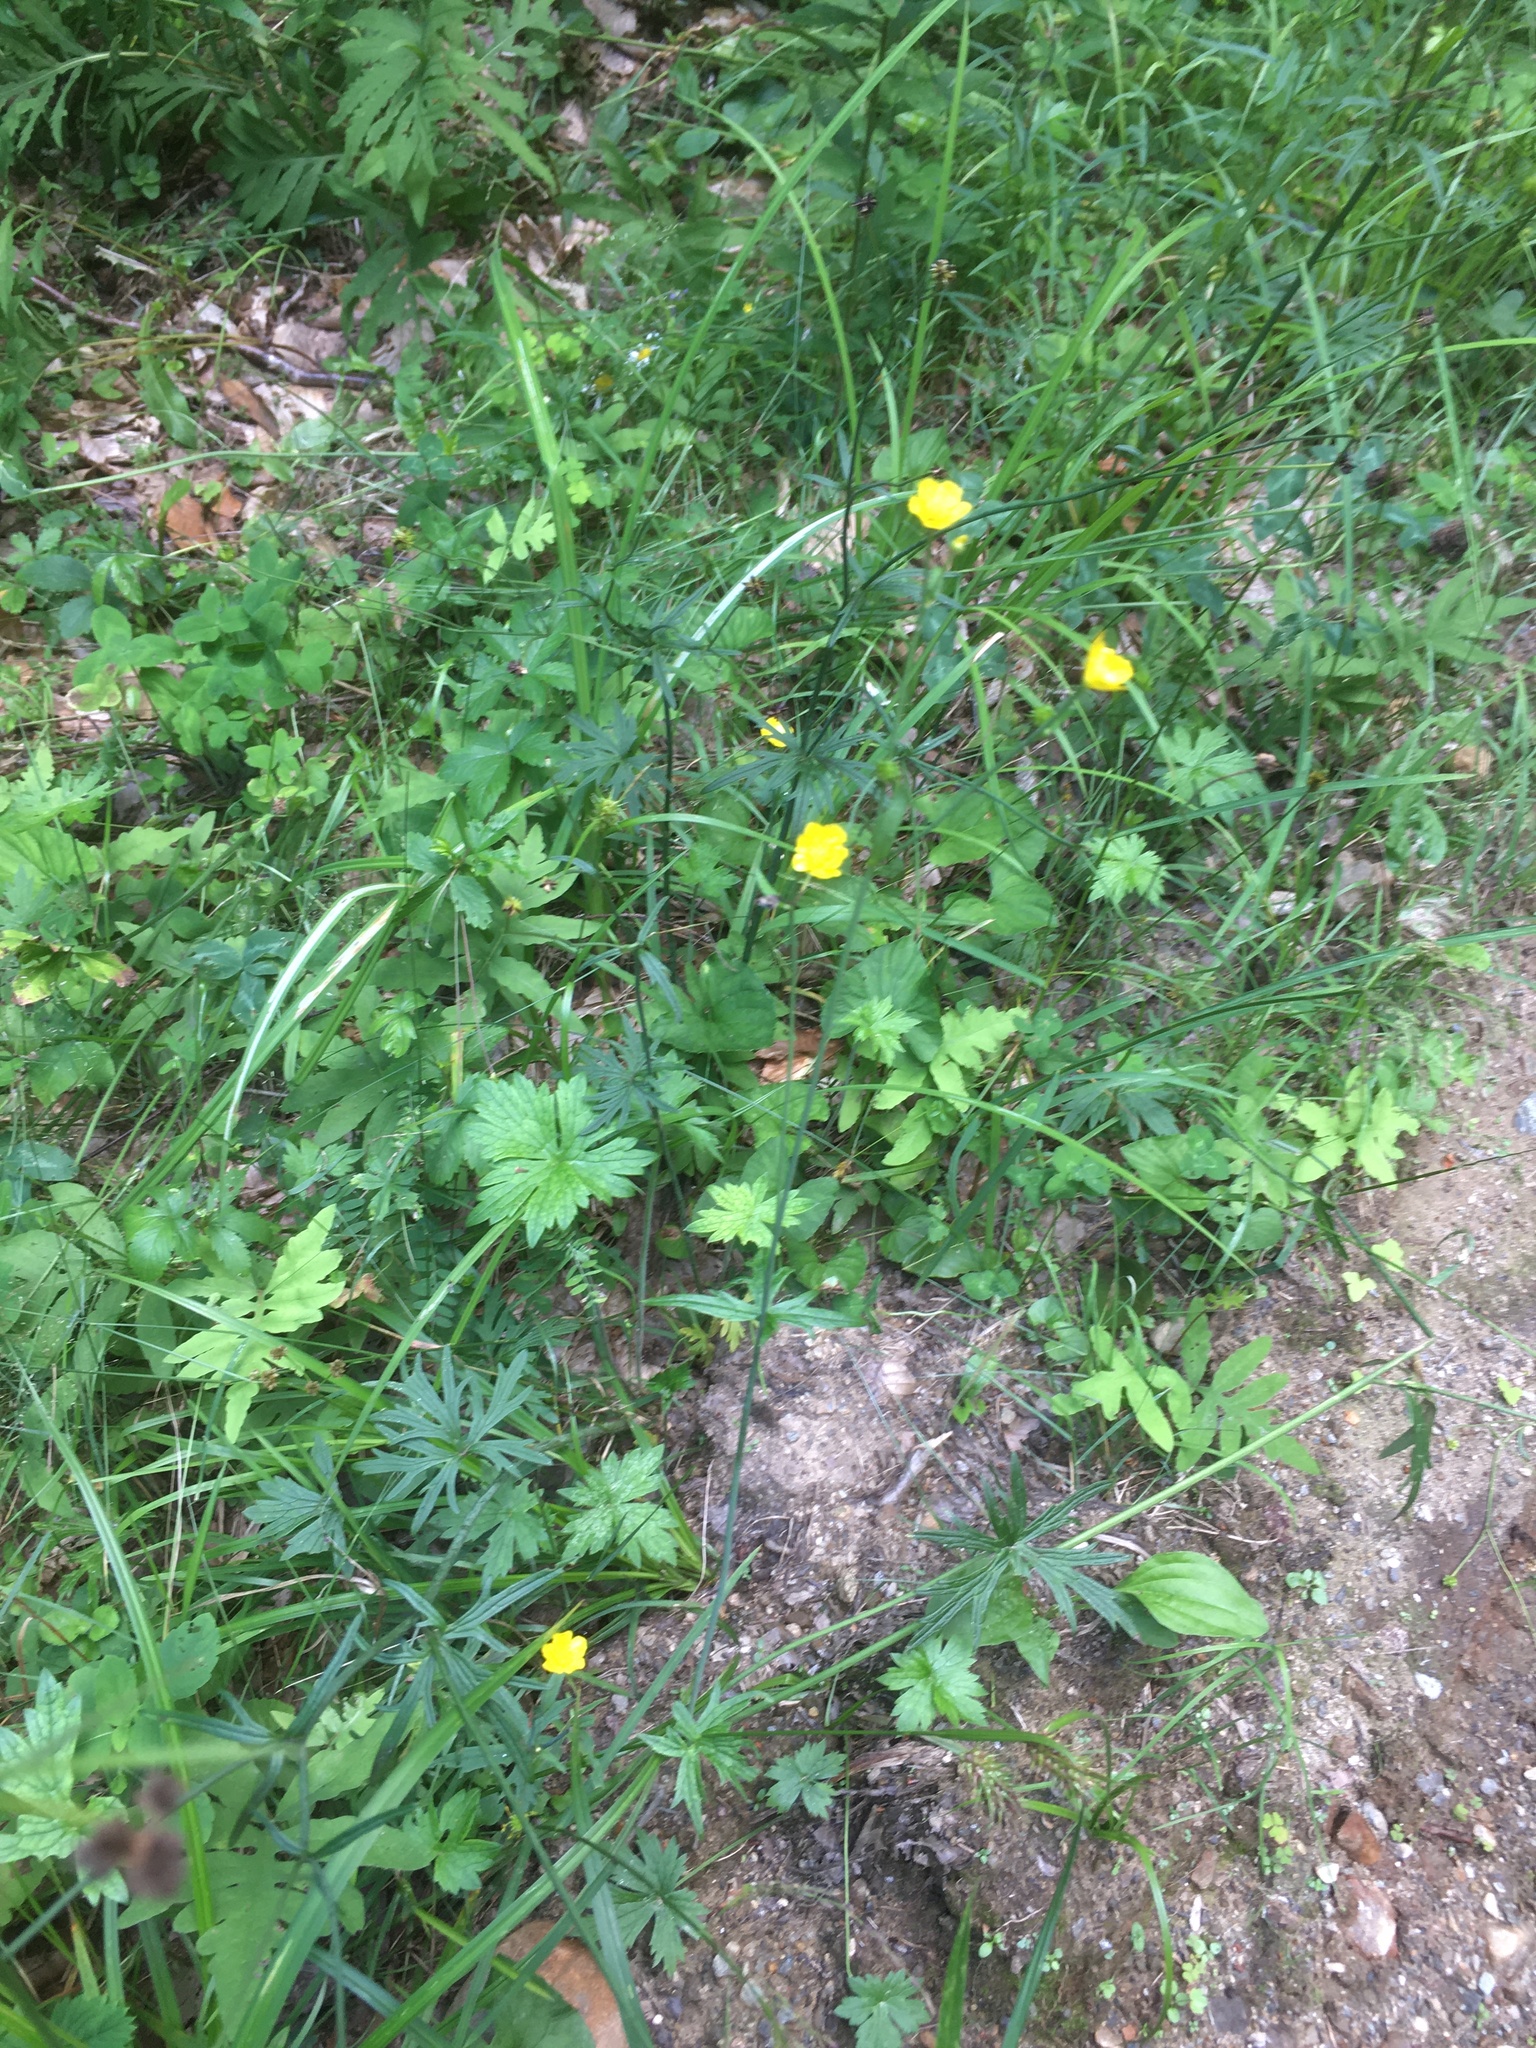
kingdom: Plantae
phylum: Tracheophyta
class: Magnoliopsida
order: Ranunculales
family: Ranunculaceae
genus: Ranunculus
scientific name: Ranunculus acris
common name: Meadow buttercup
